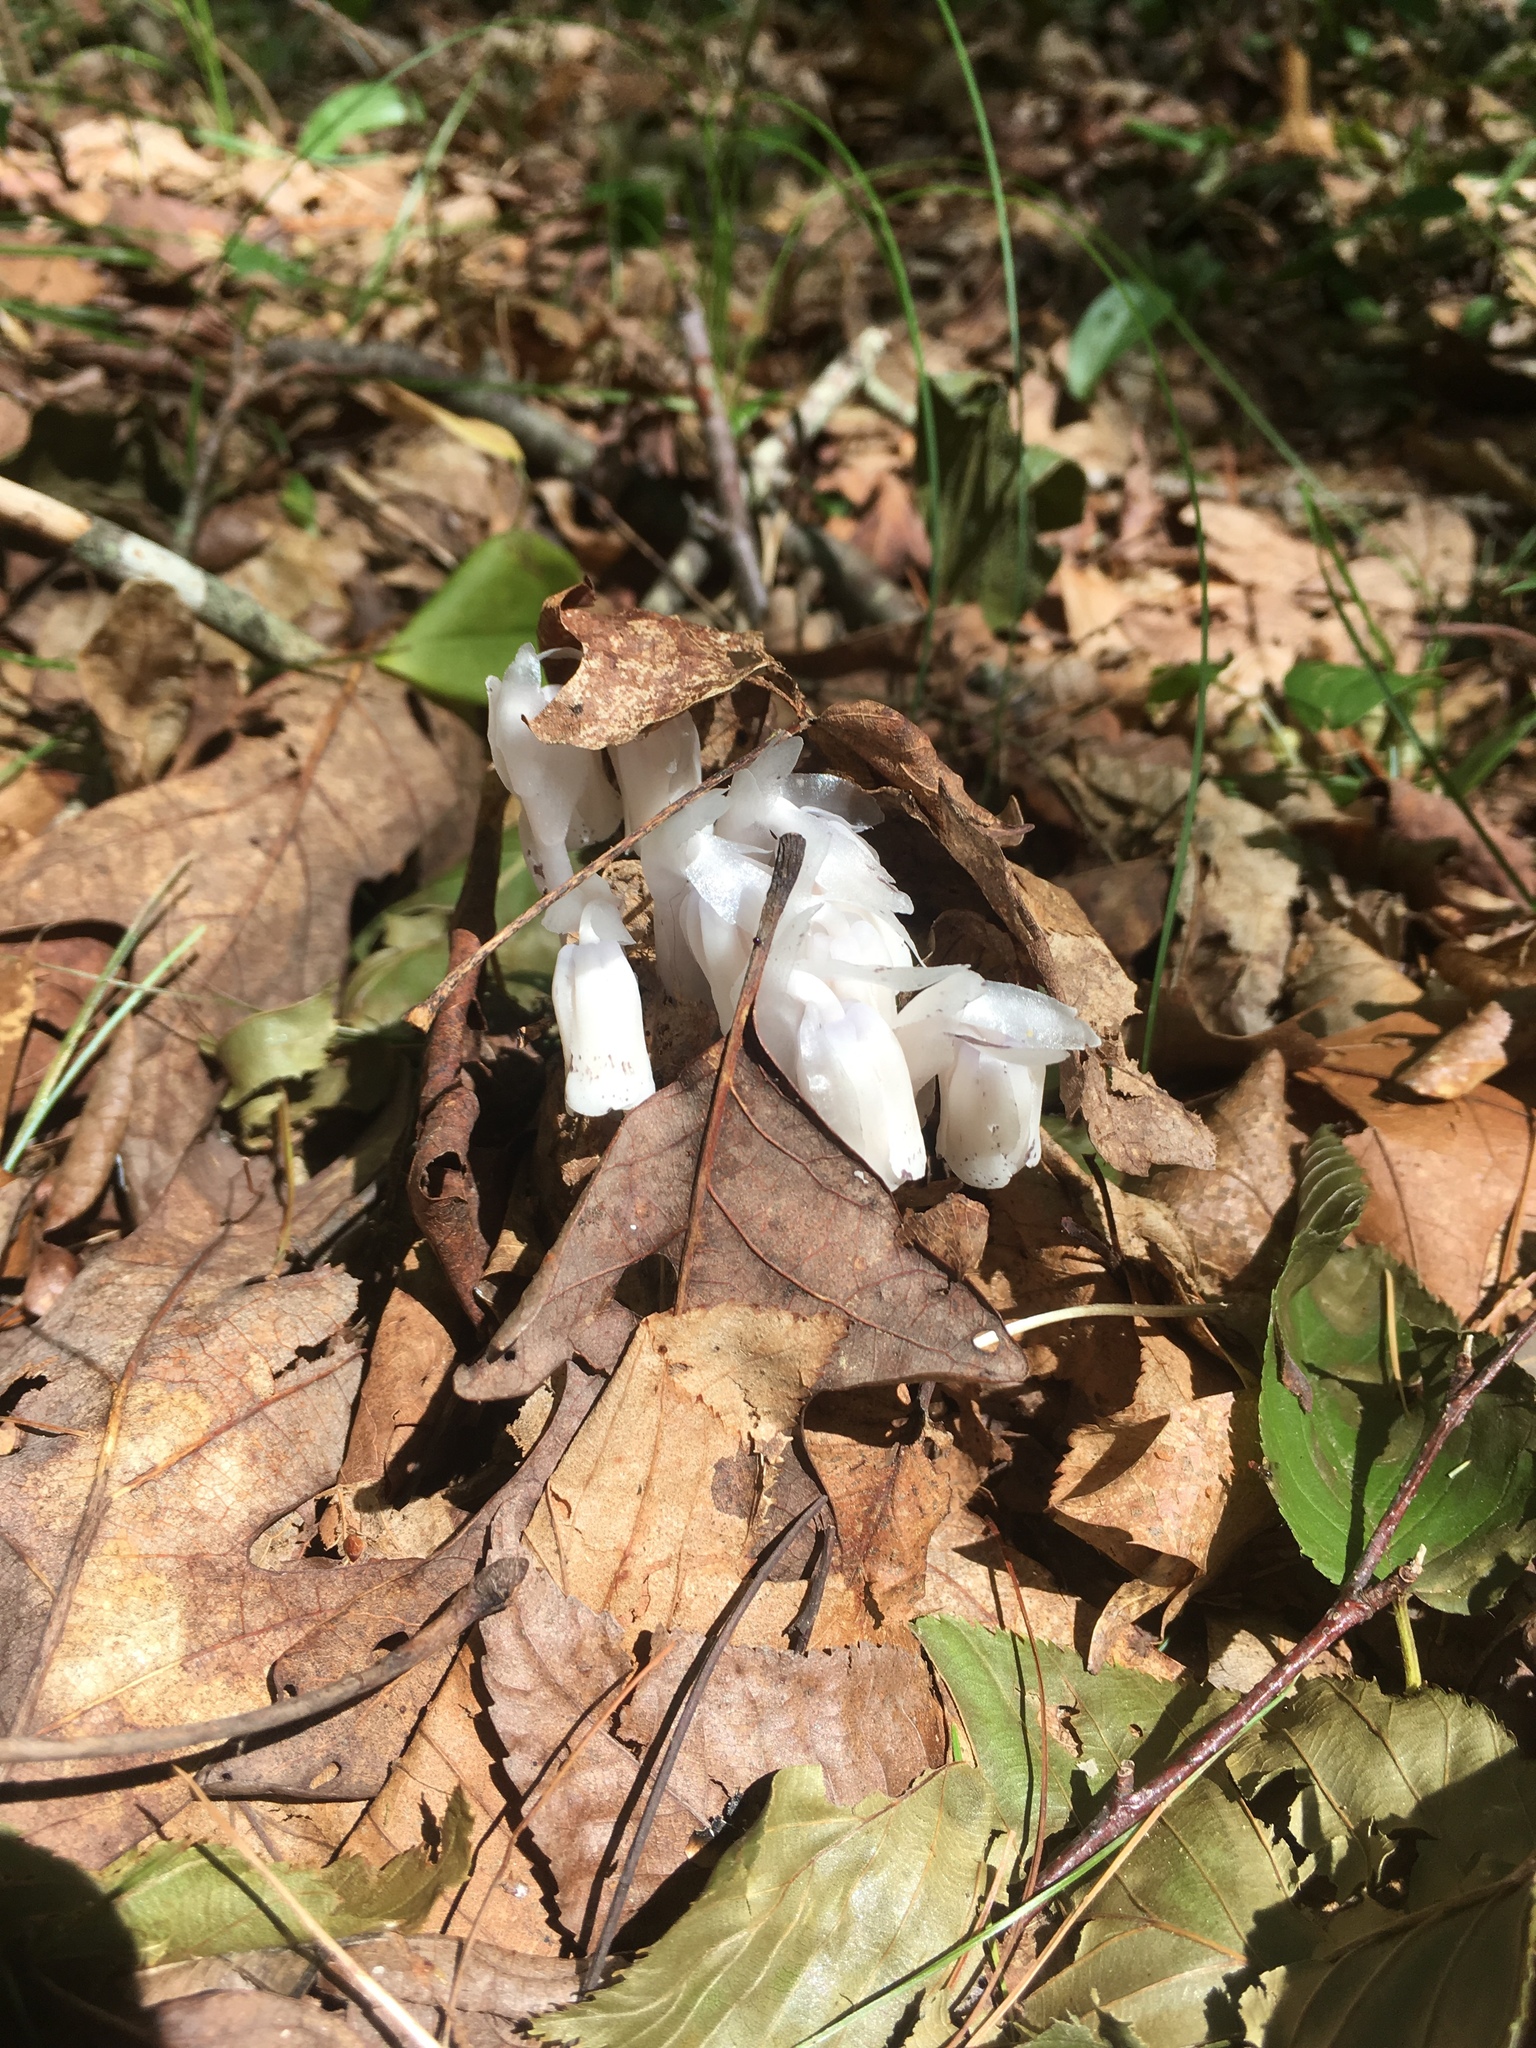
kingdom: Plantae
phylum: Tracheophyta
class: Magnoliopsida
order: Ericales
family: Ericaceae
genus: Monotropa
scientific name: Monotropa uniflora
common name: Convulsion root
